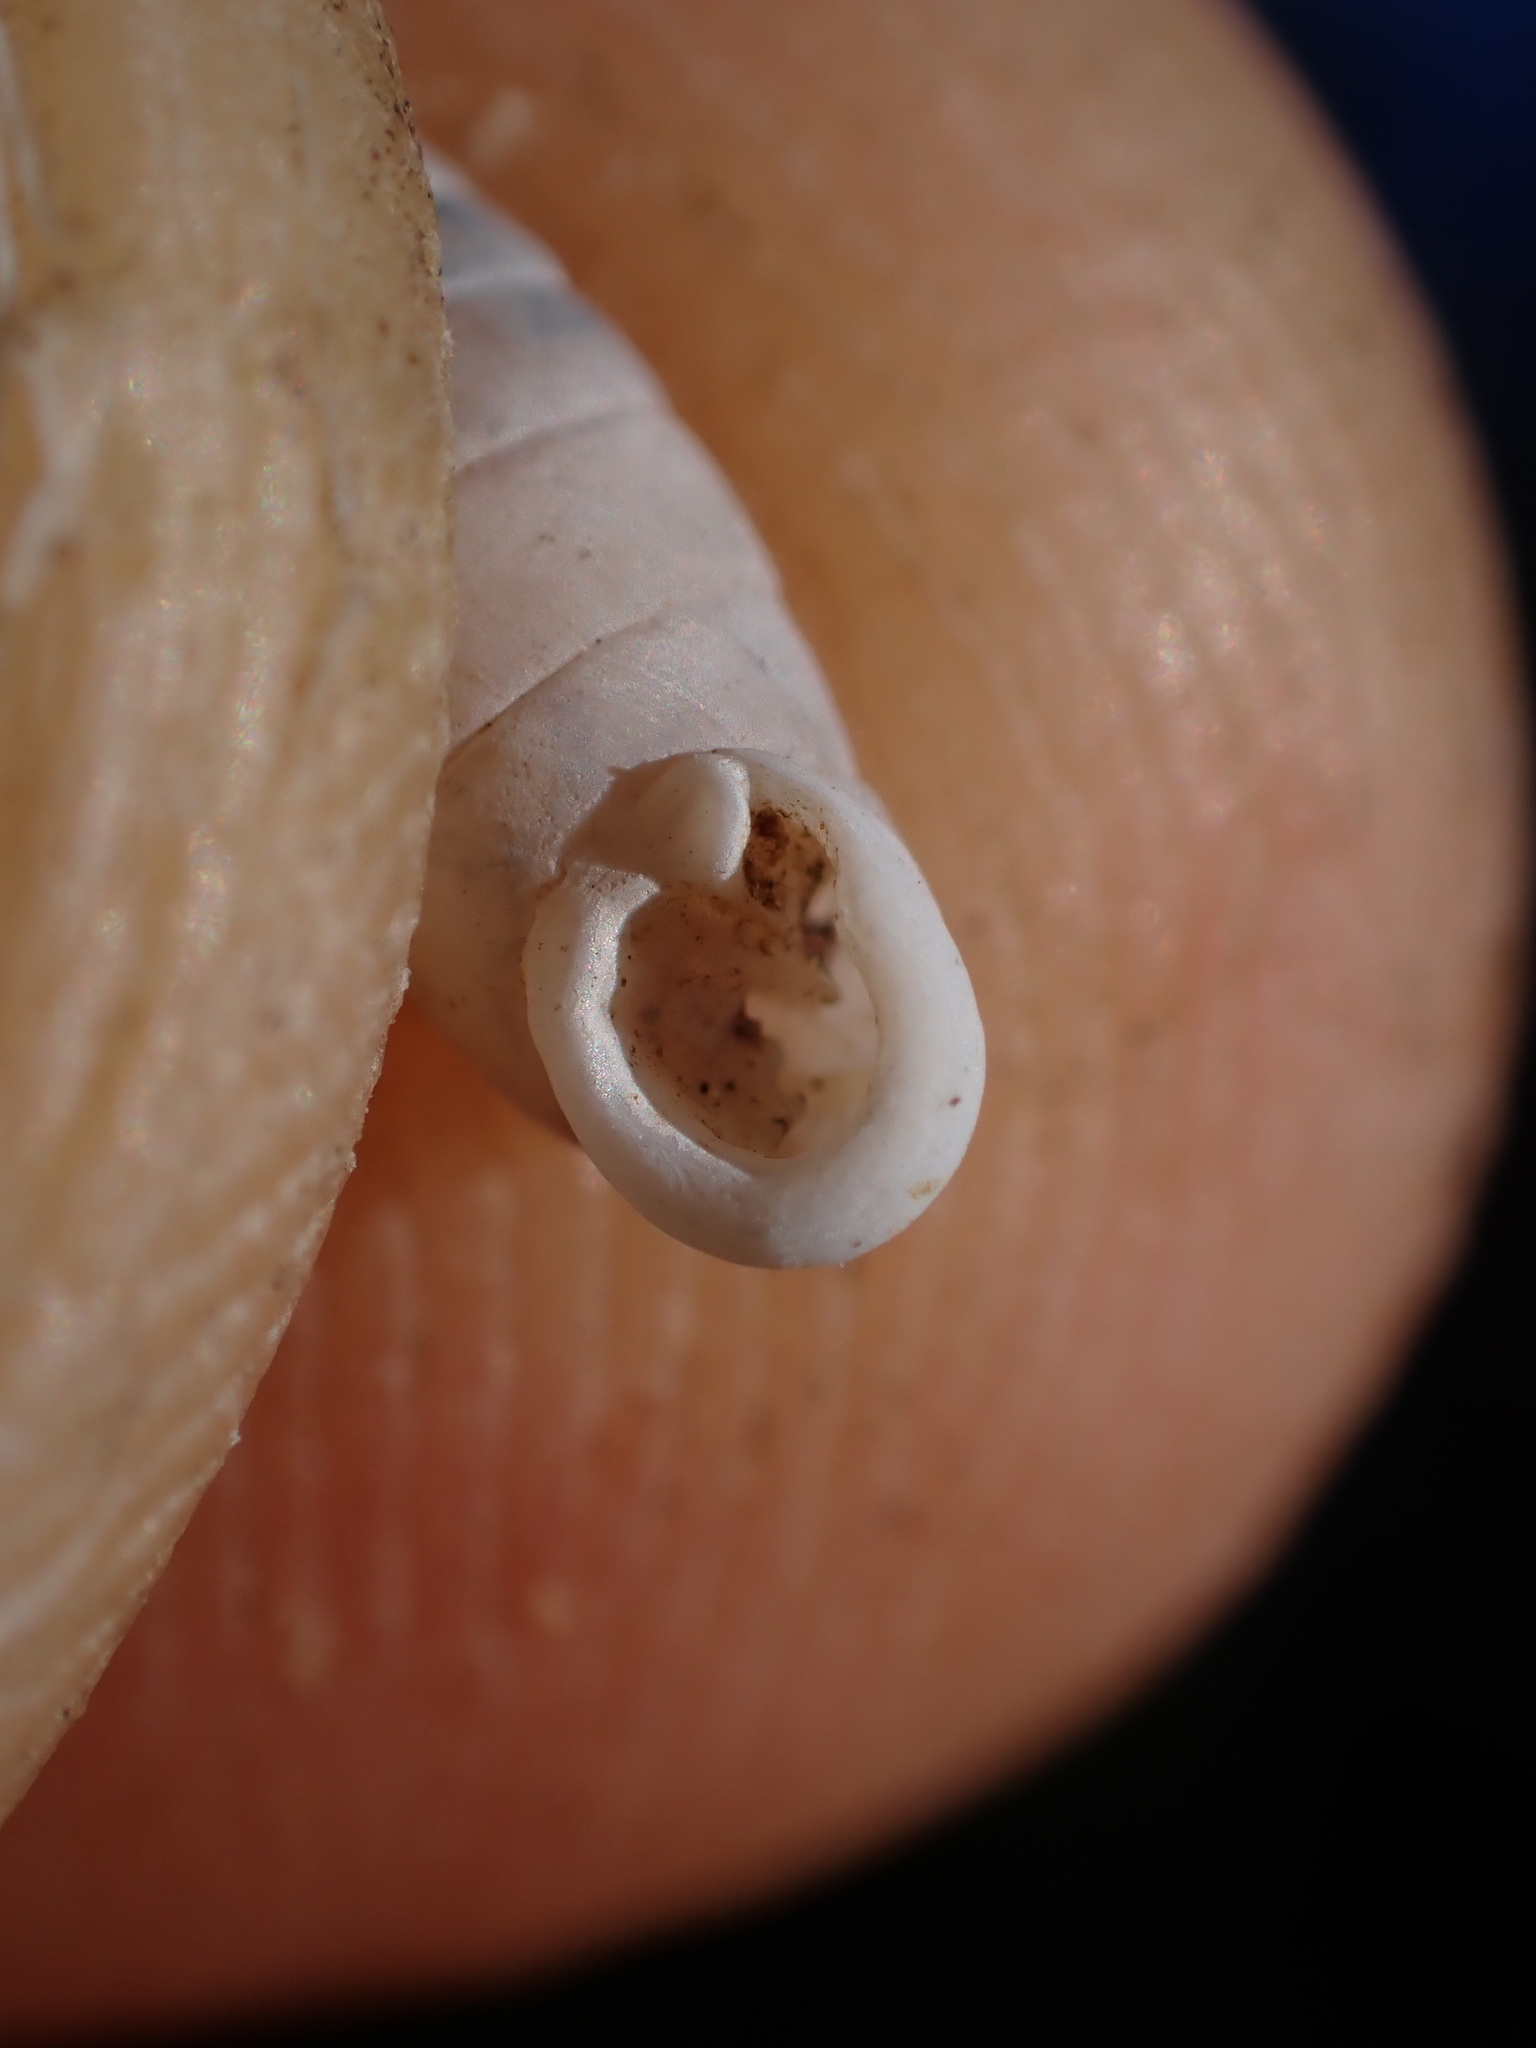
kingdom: Animalia
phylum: Mollusca
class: Gastropoda
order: Stylommatophora
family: Chondrinidae
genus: Granaria
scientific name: Granaria variabilis
